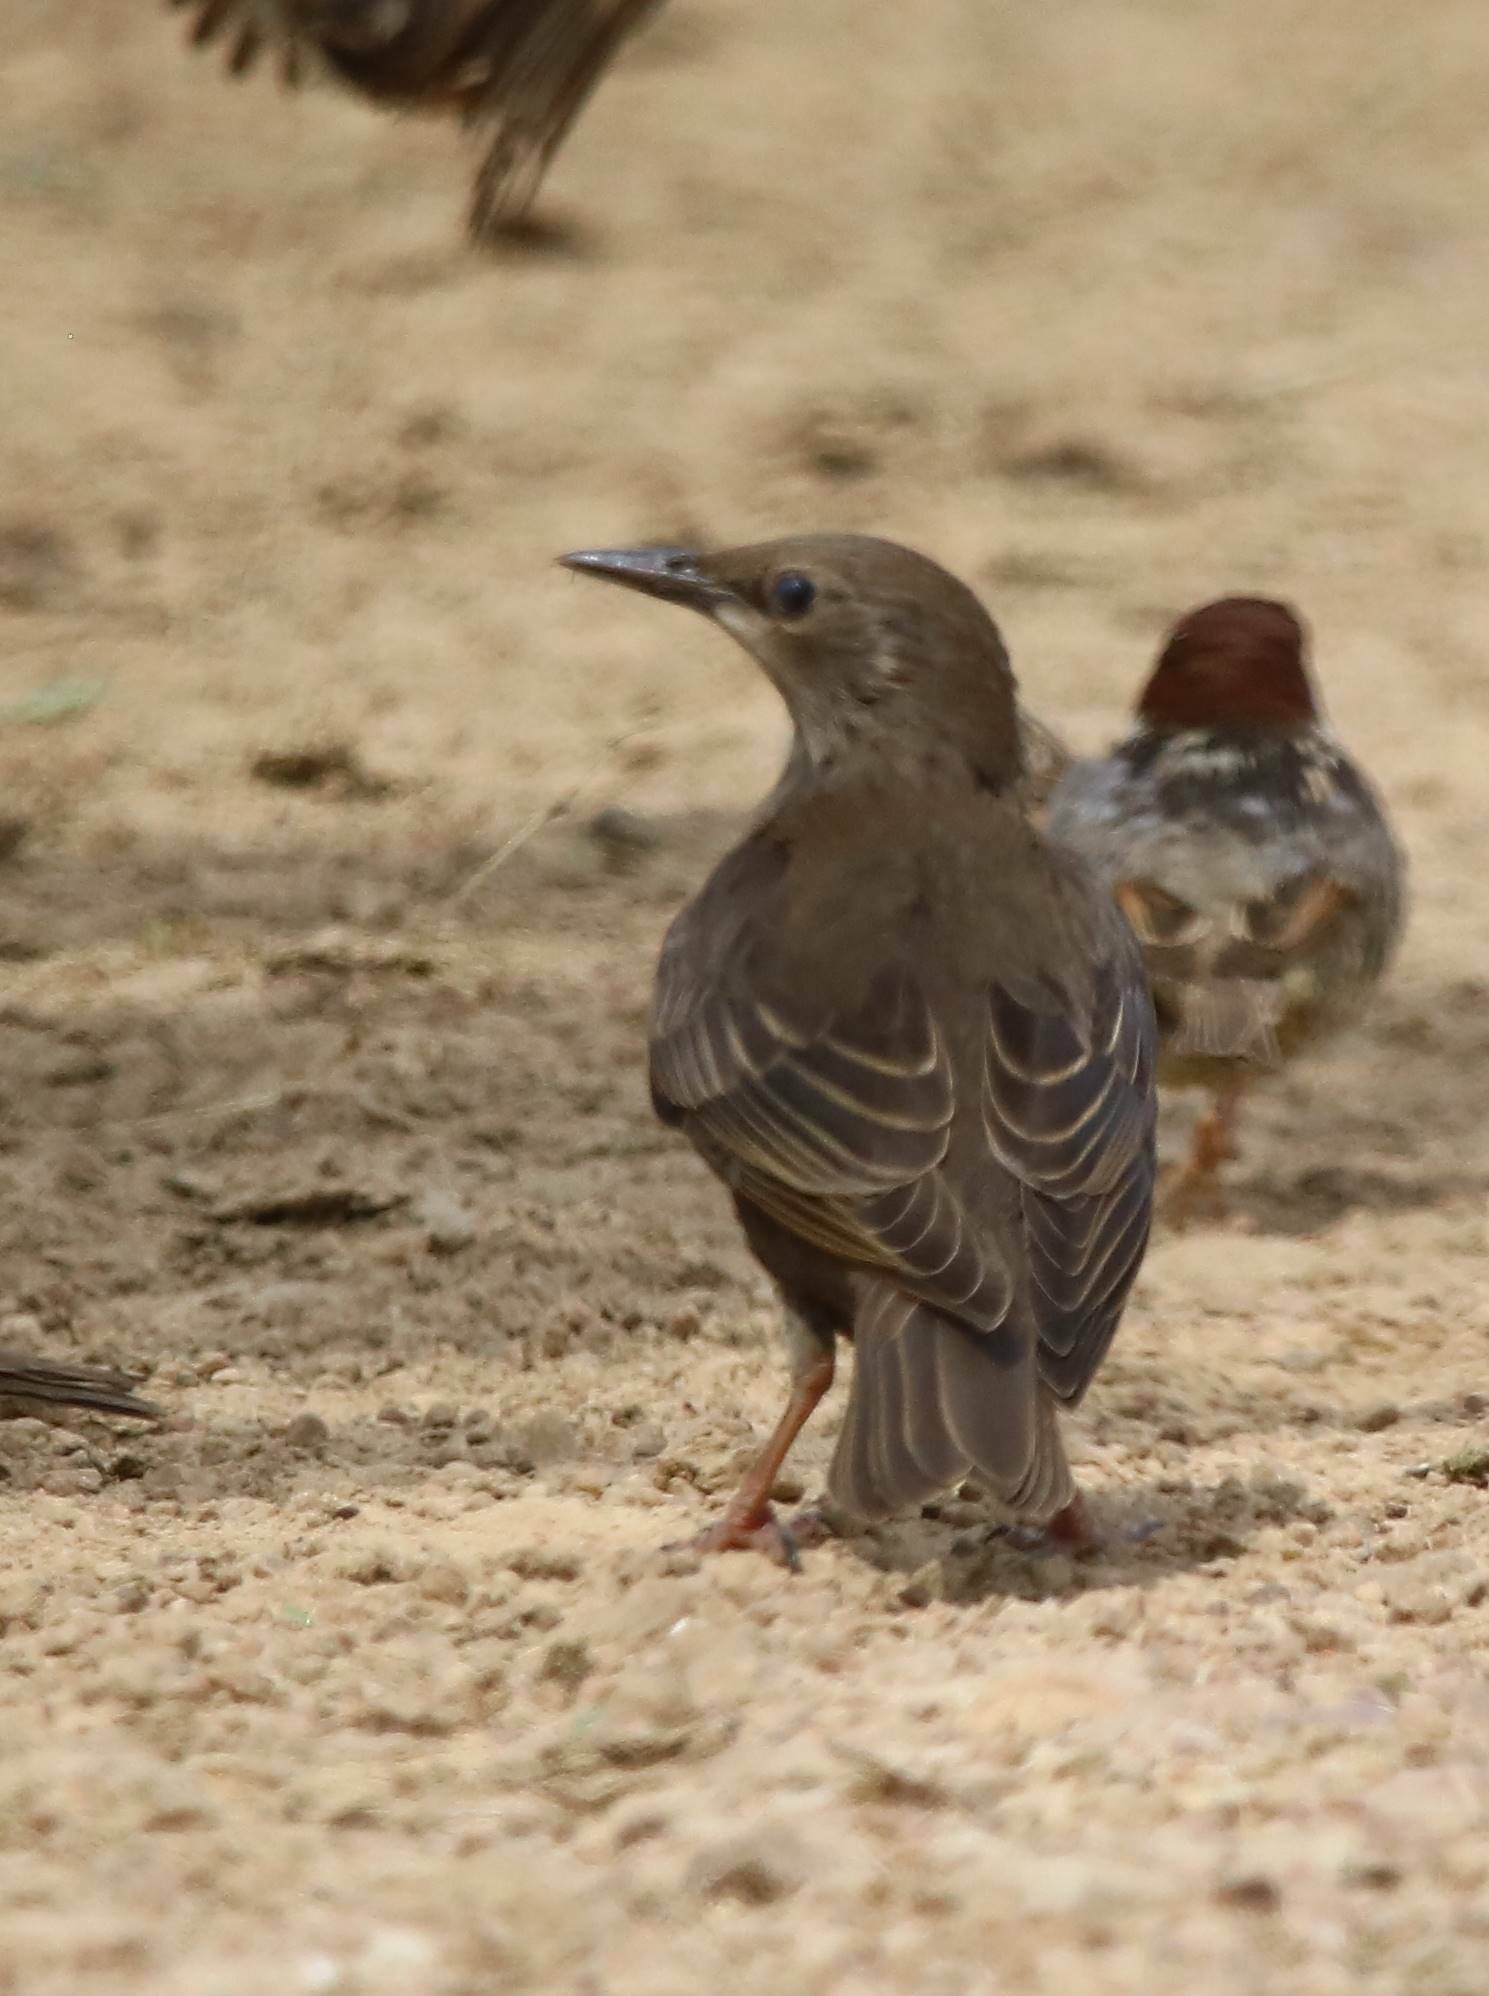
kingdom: Animalia
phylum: Chordata
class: Aves
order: Passeriformes
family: Sturnidae
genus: Sturnus
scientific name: Sturnus unicolor
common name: Spotless starling
